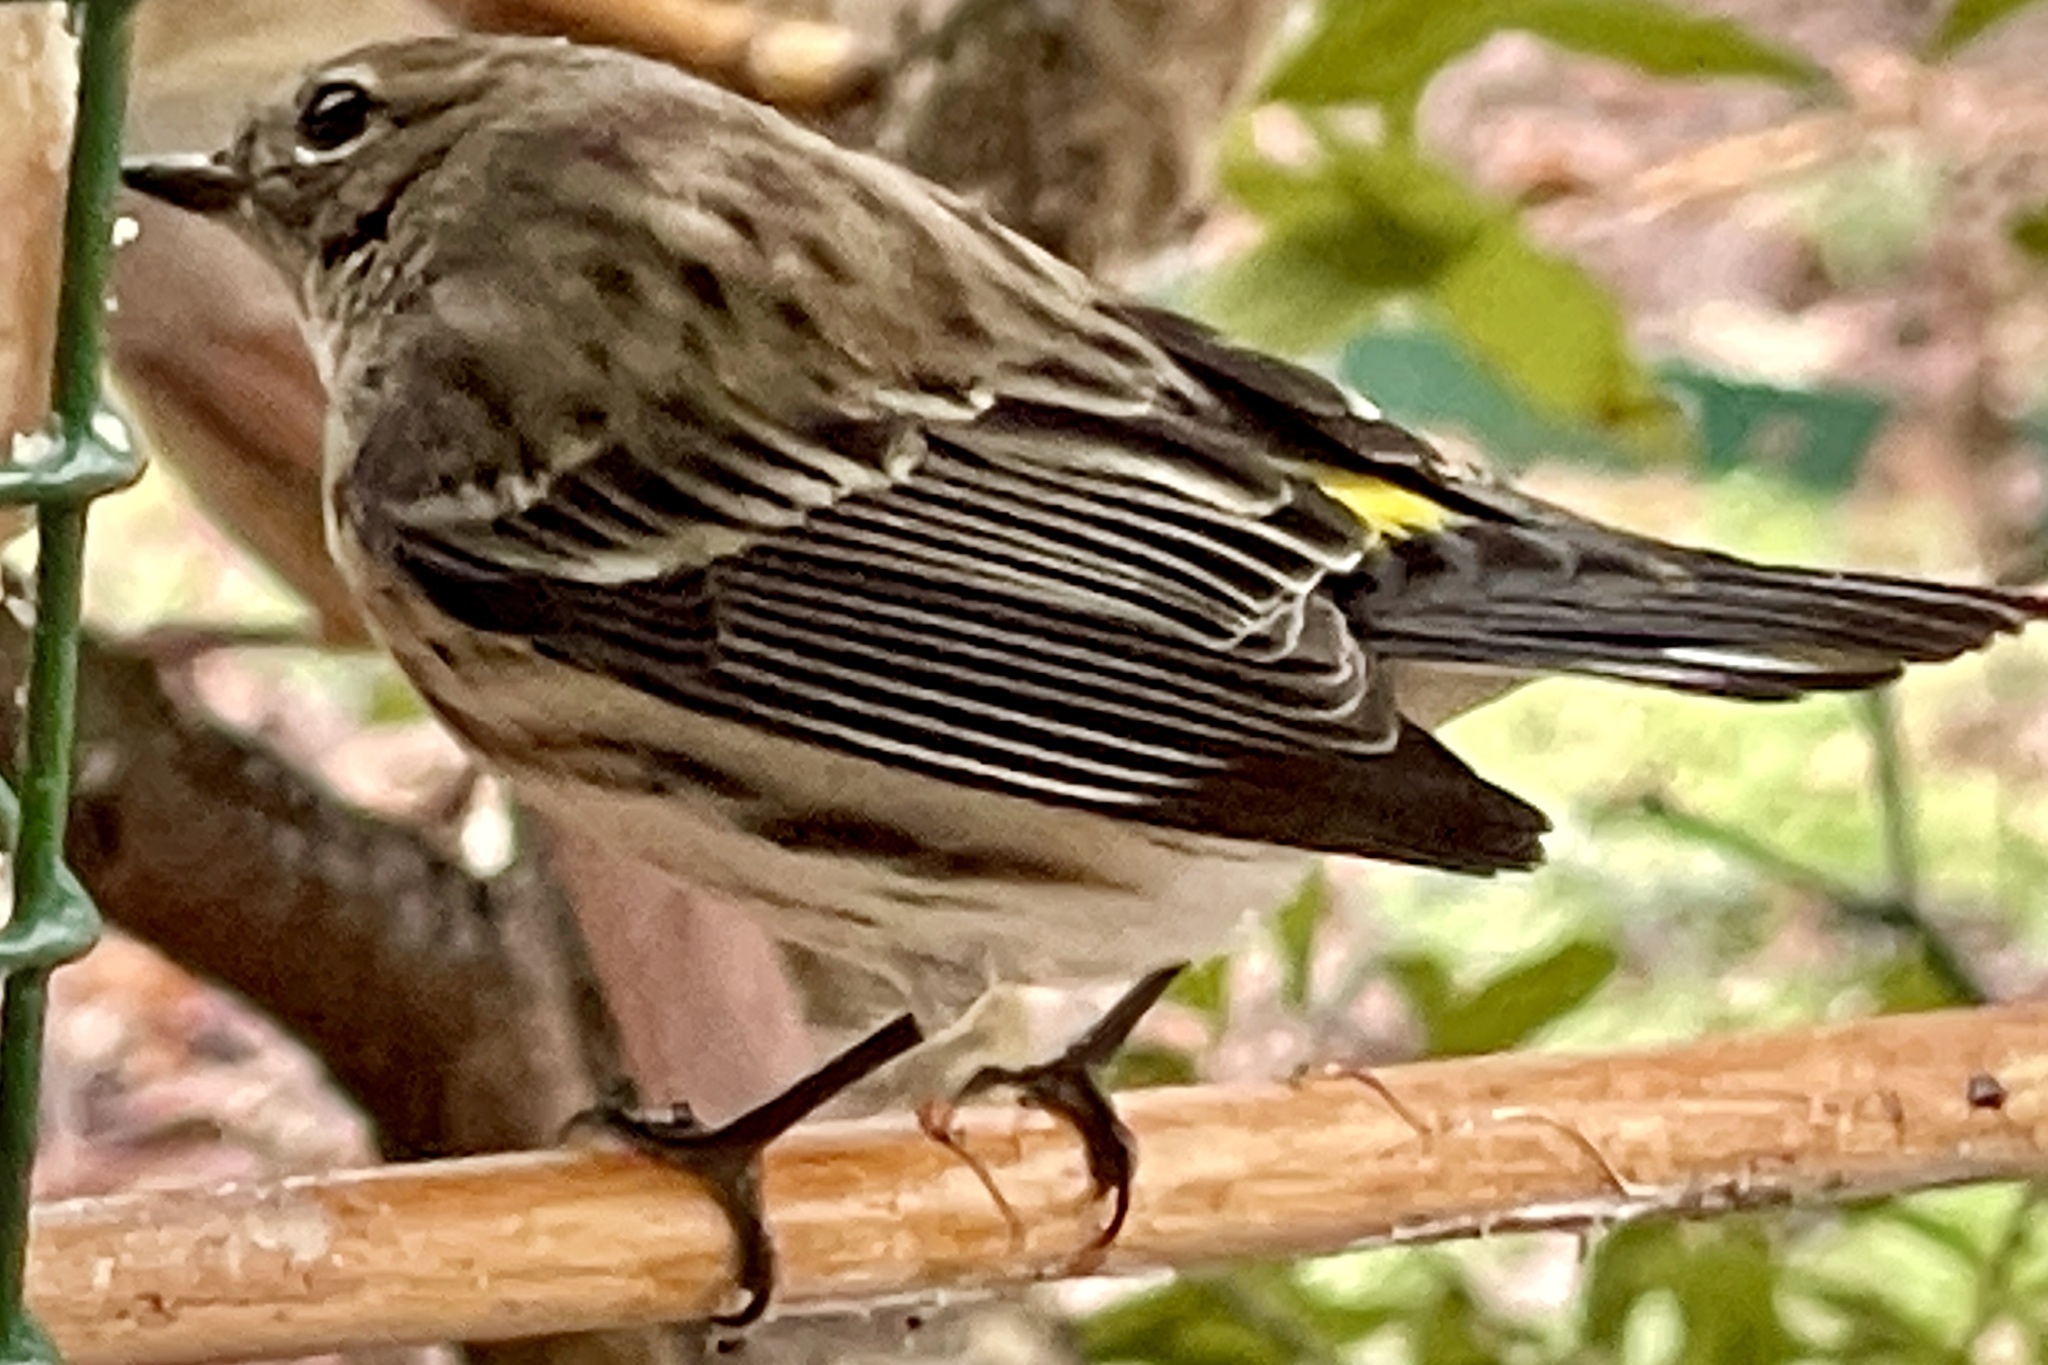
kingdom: Animalia
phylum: Chordata
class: Aves
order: Passeriformes
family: Parulidae
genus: Setophaga
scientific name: Setophaga coronata
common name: Myrtle warbler
